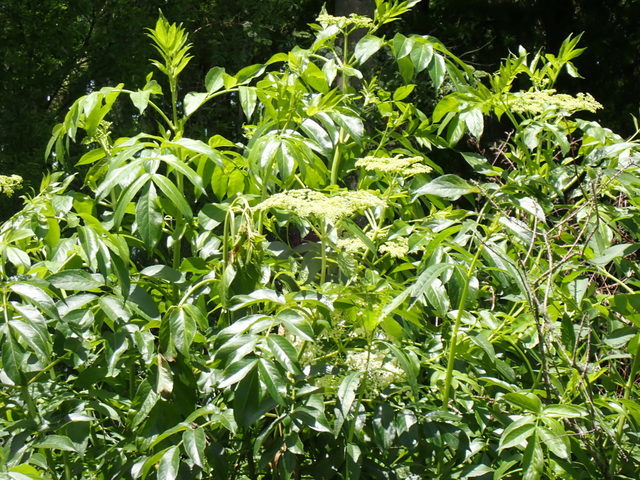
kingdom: Plantae
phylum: Tracheophyta
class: Magnoliopsida
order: Dipsacales
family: Viburnaceae
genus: Sambucus
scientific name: Sambucus canadensis
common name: American elder
